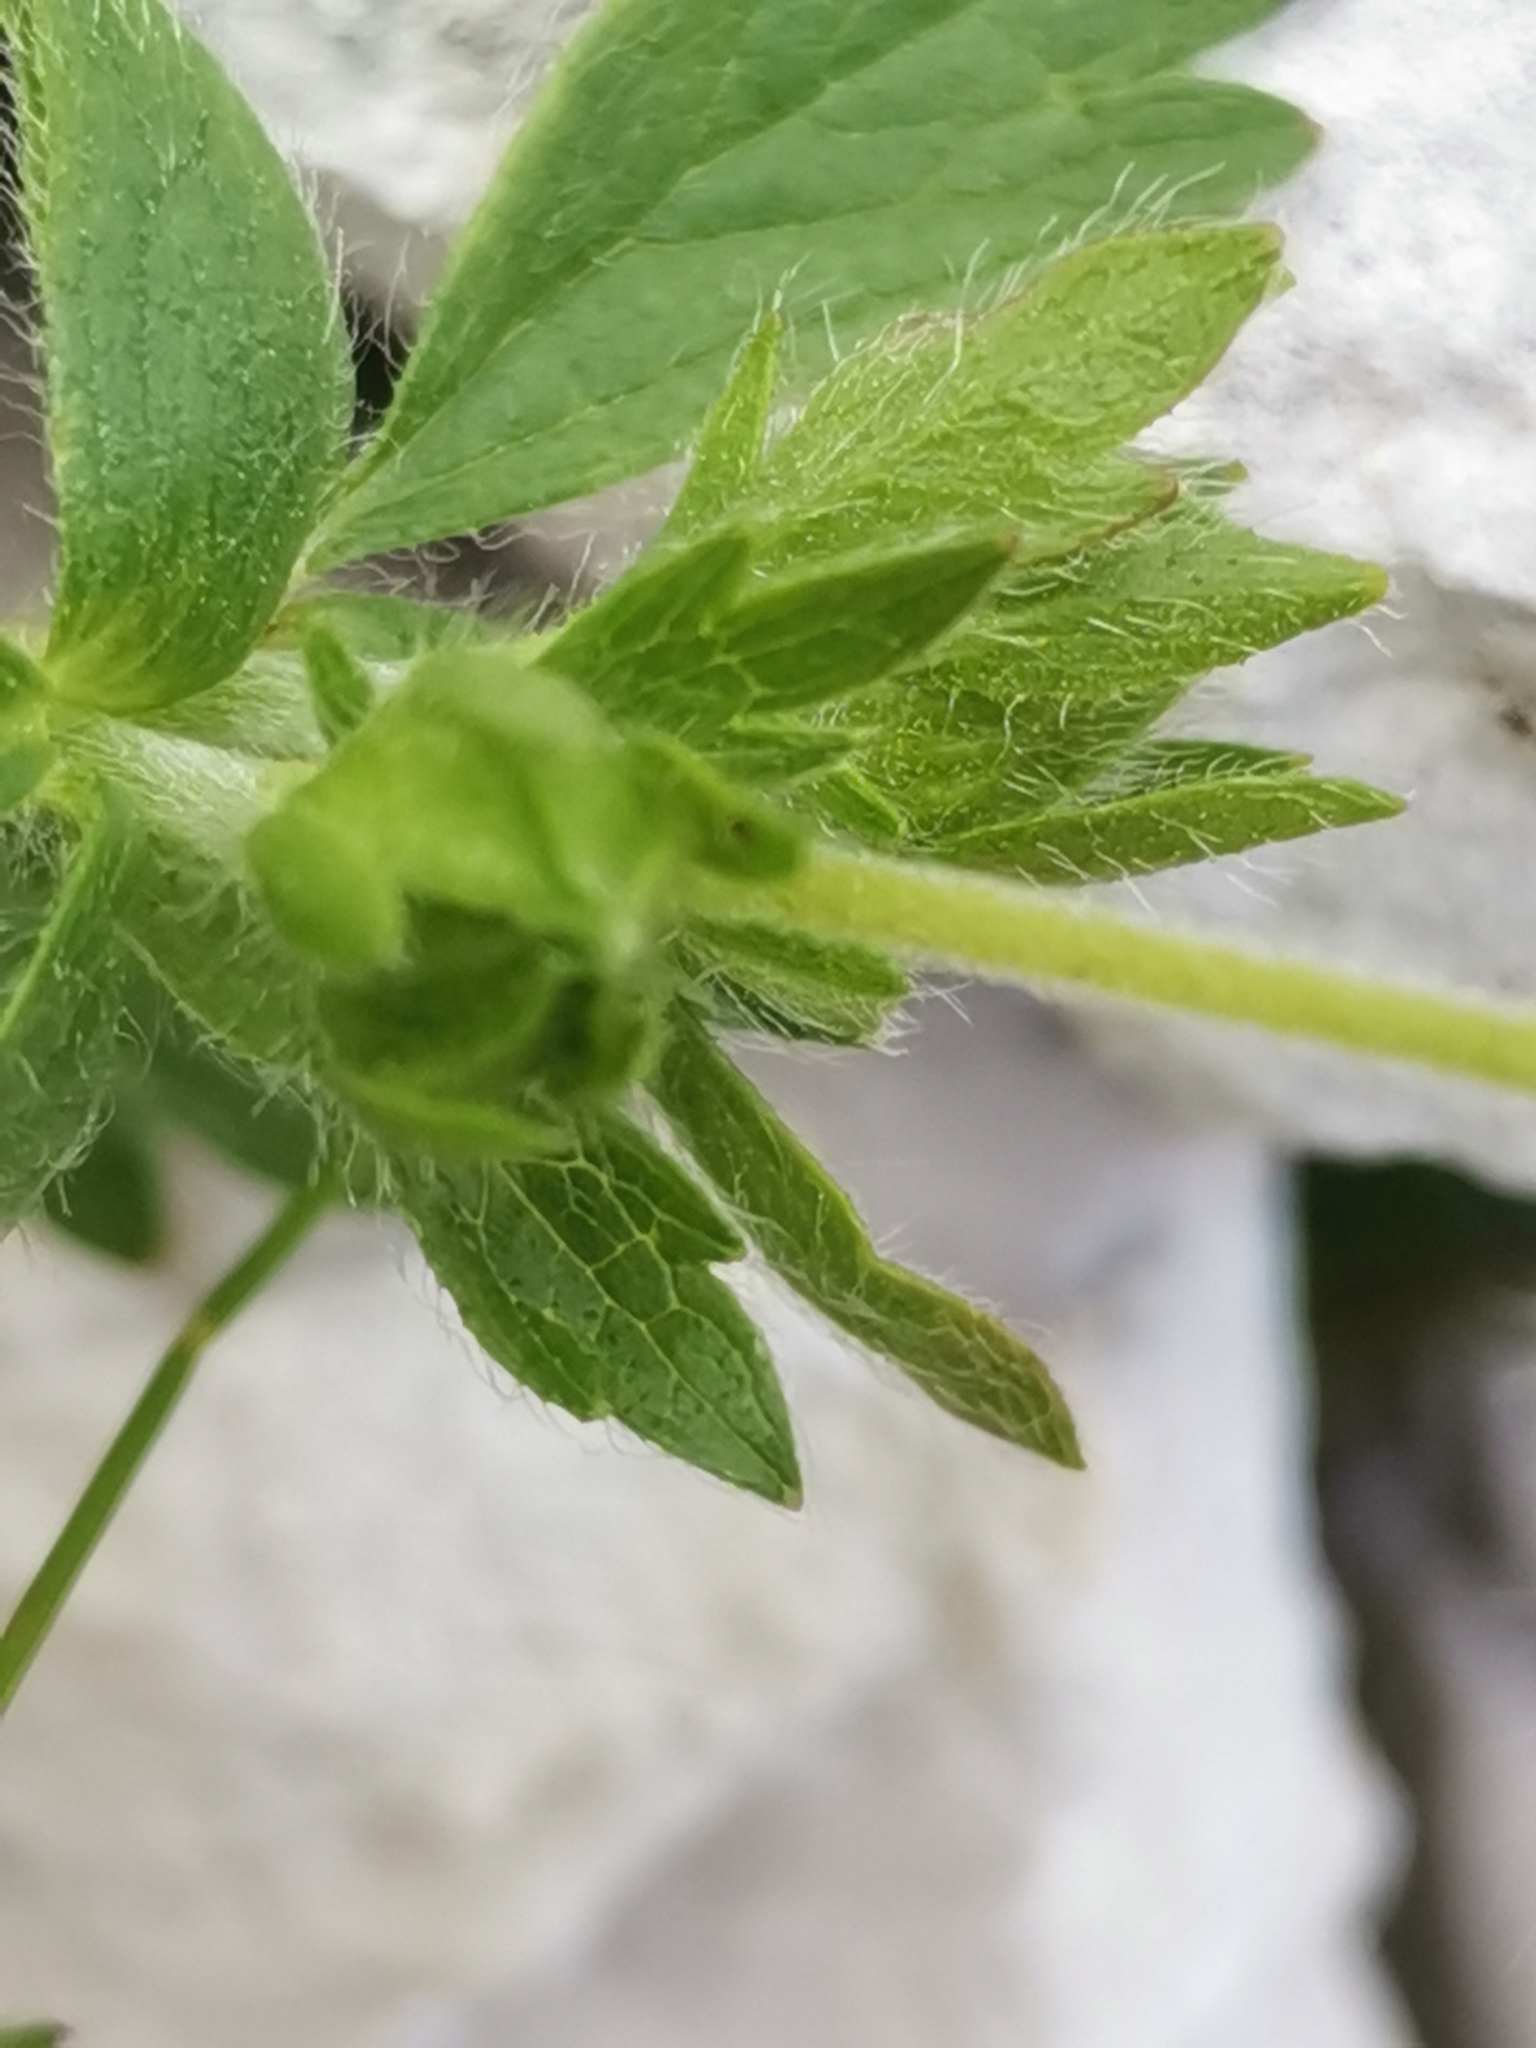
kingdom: Plantae
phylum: Tracheophyta
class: Magnoliopsida
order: Rosales
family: Rosaceae
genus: Potentilla
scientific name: Potentilla crantzii
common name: Alpine cinquefoil
